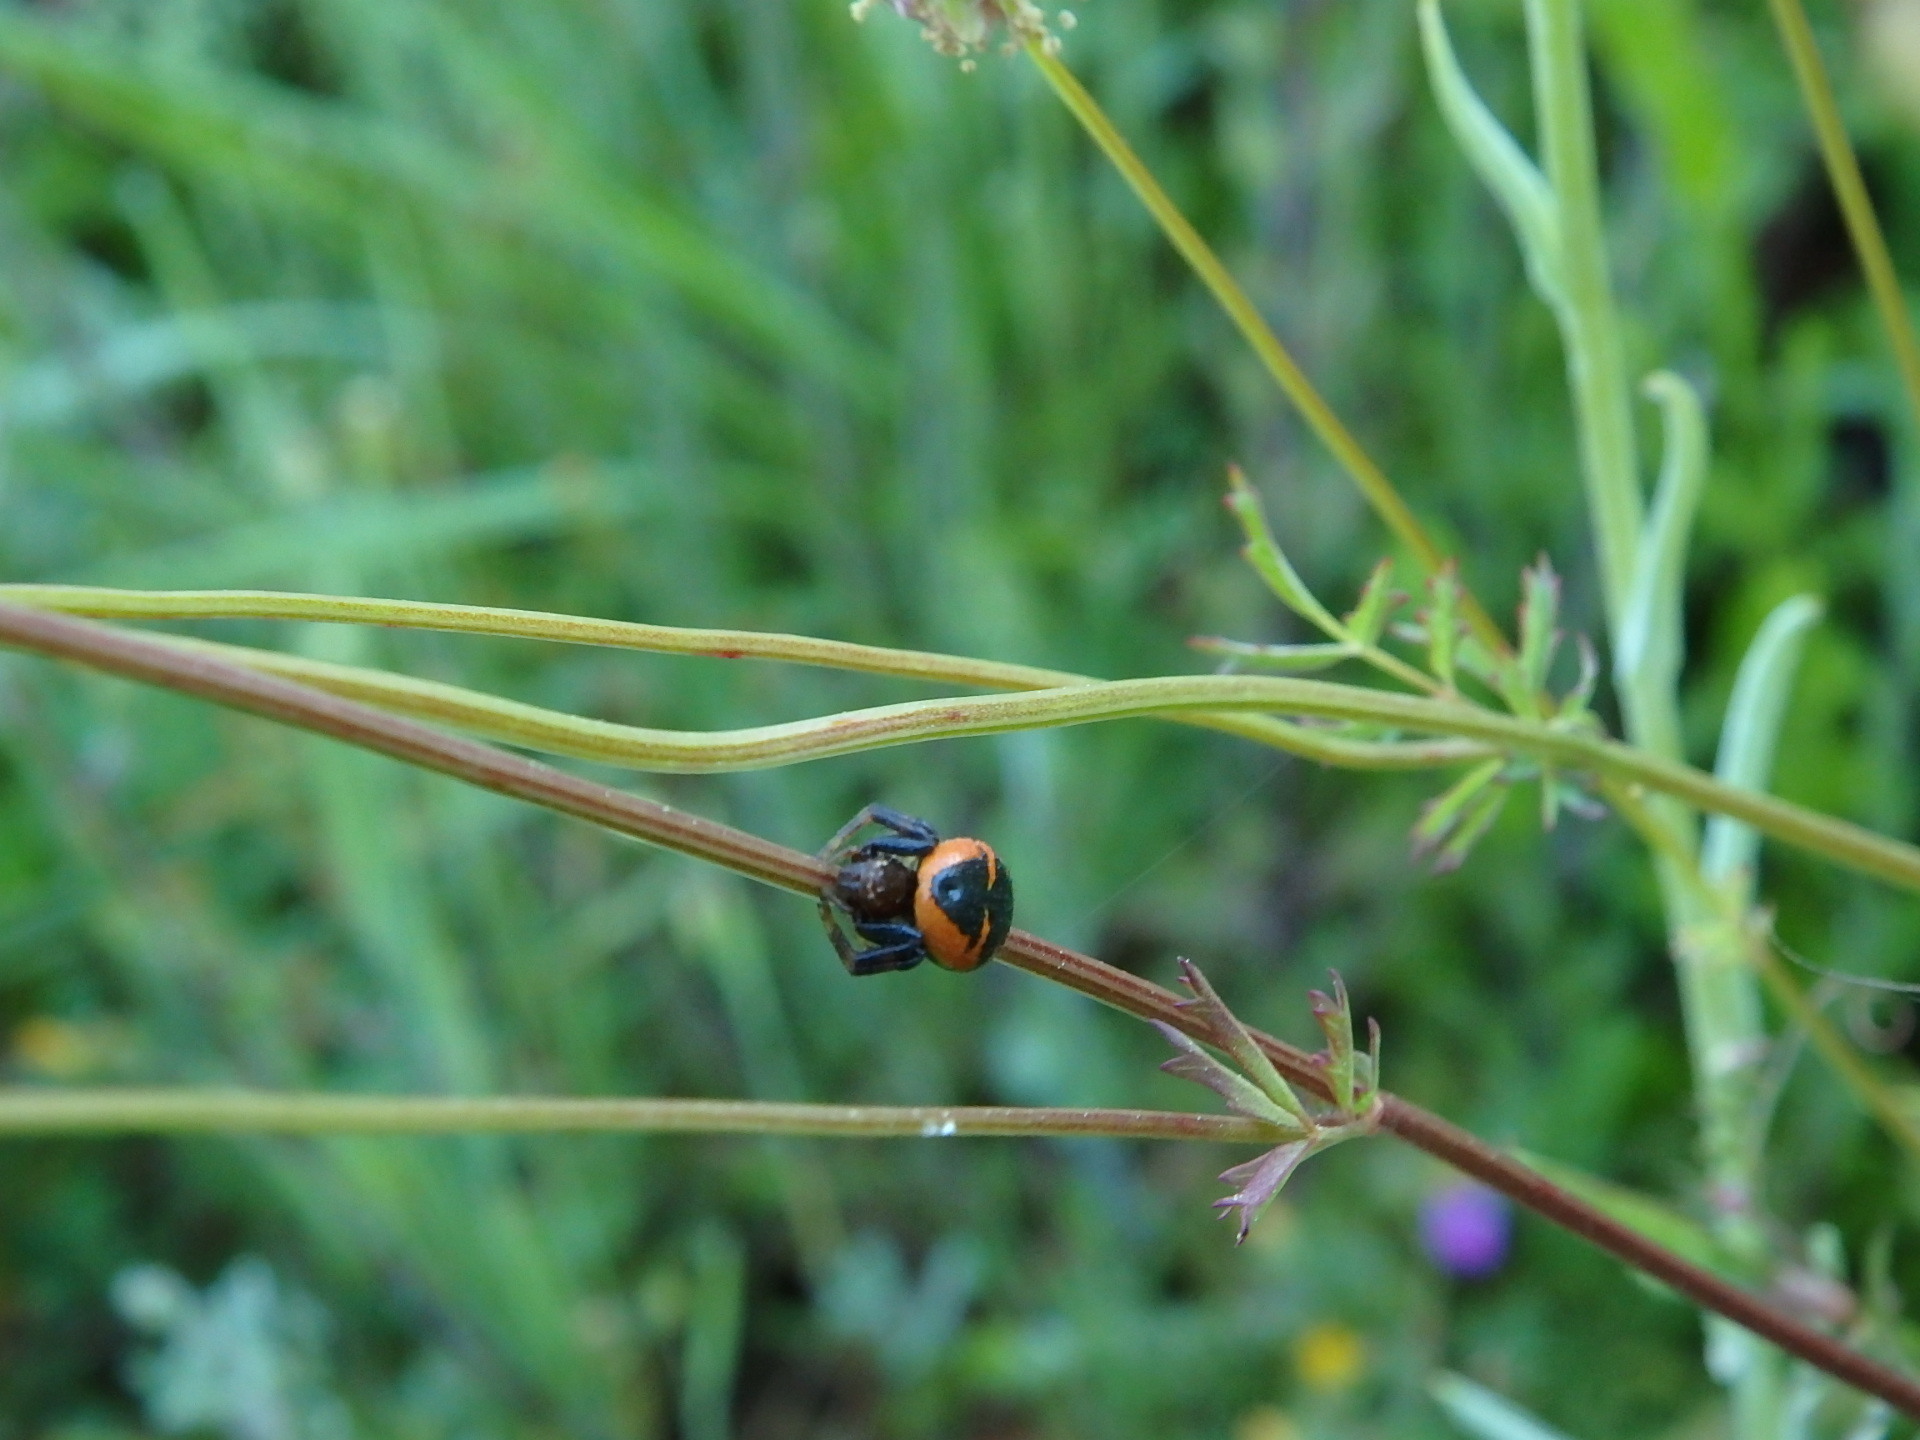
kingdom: Animalia
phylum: Arthropoda
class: Arachnida
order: Araneae
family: Thomisidae
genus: Synema
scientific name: Synema globosum
